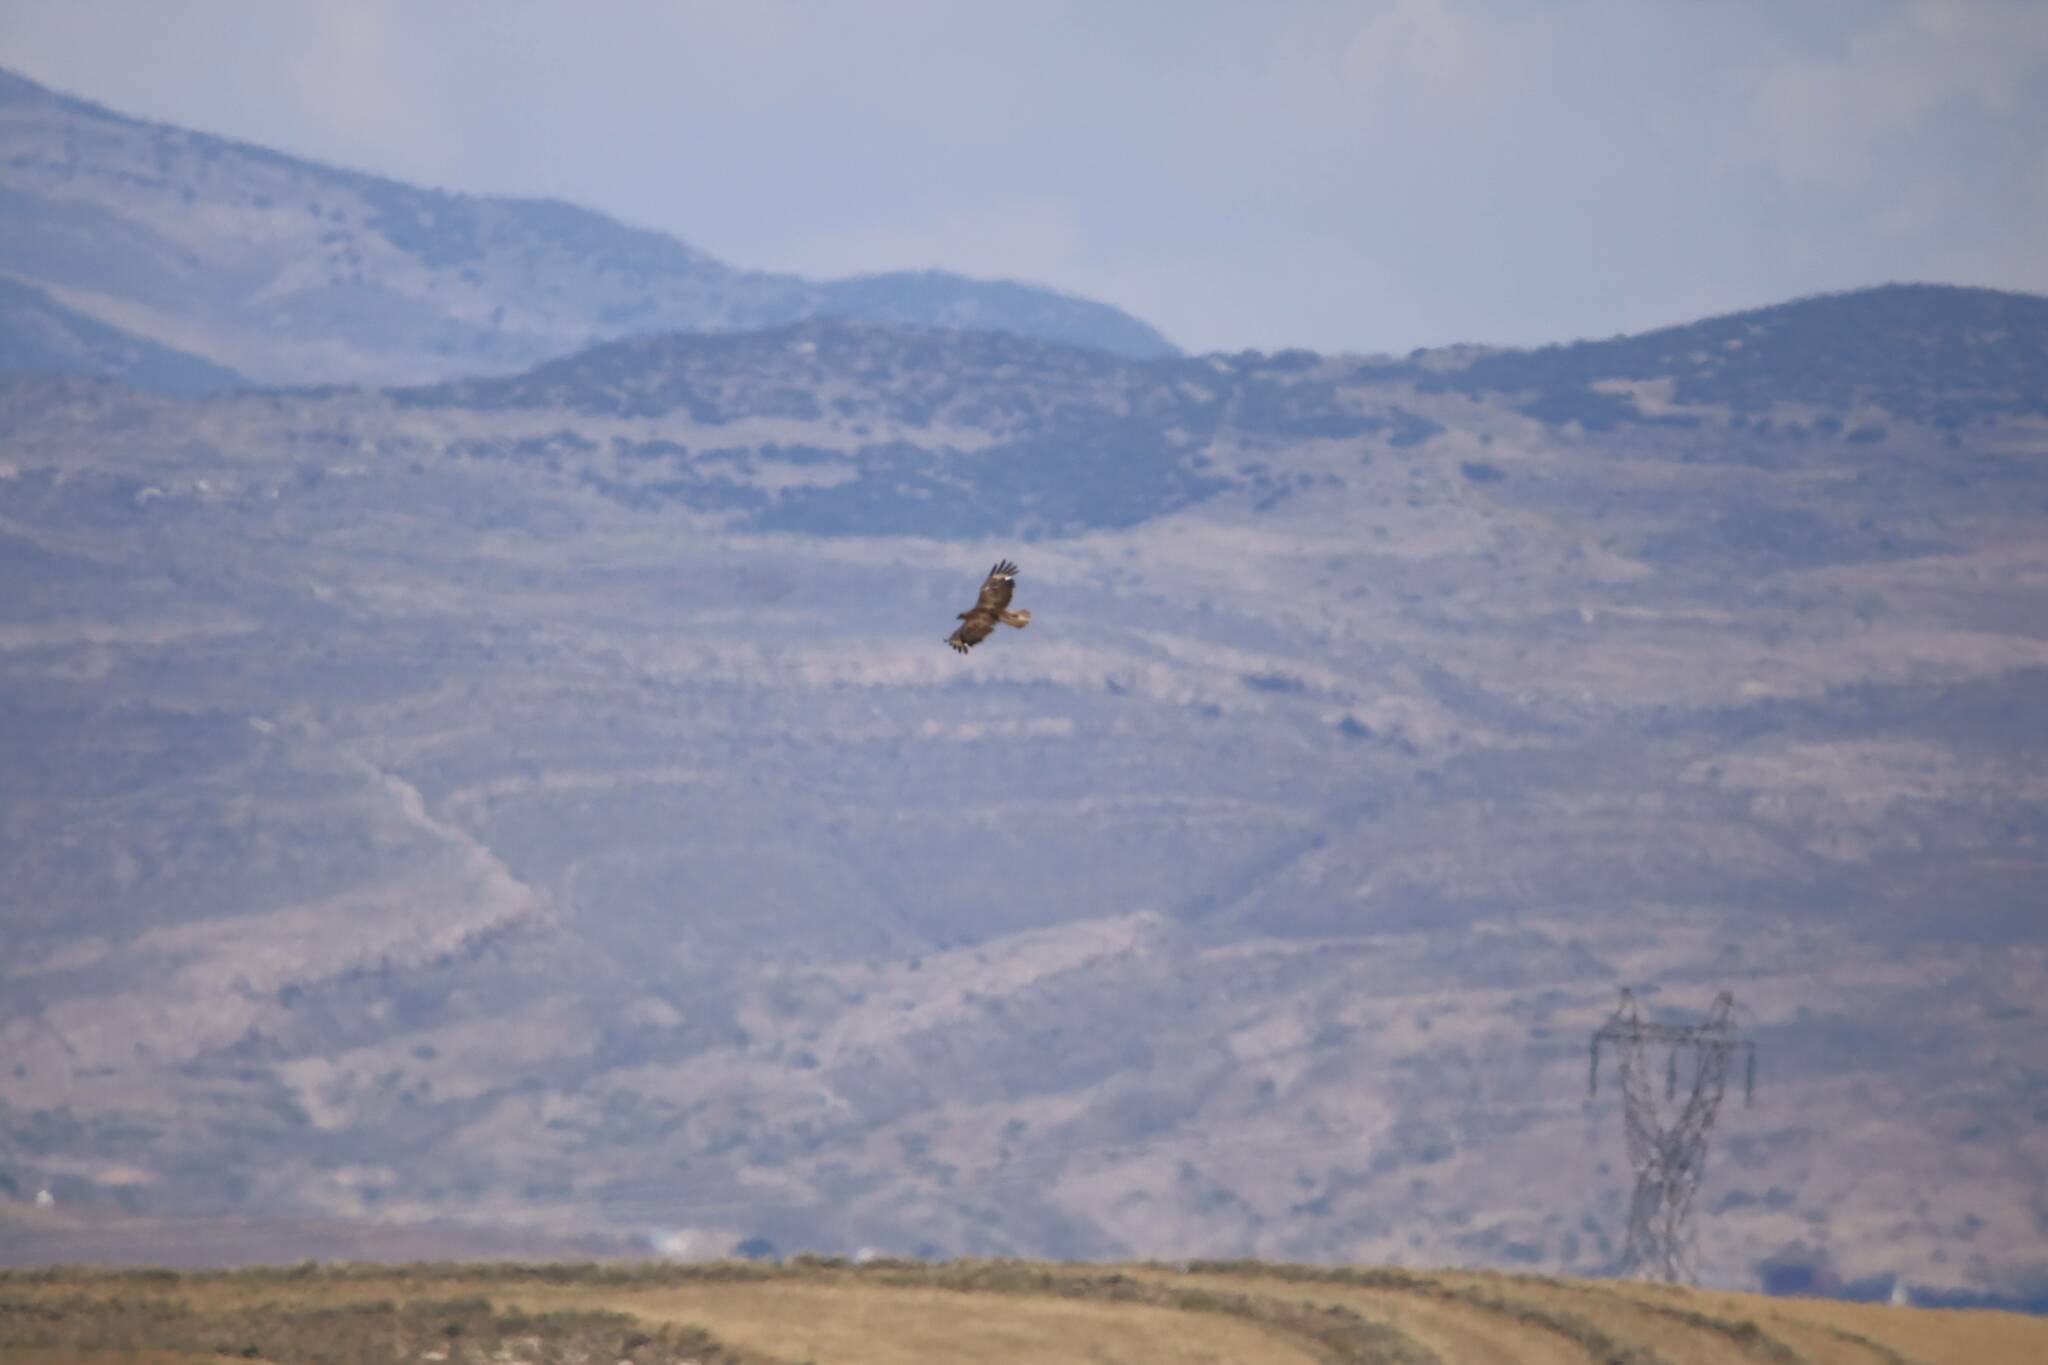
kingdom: Animalia
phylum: Chordata
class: Aves
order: Accipitriformes
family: Accipitridae
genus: Buteo
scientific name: Buteo rufinus
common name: Long-legged buzzard
